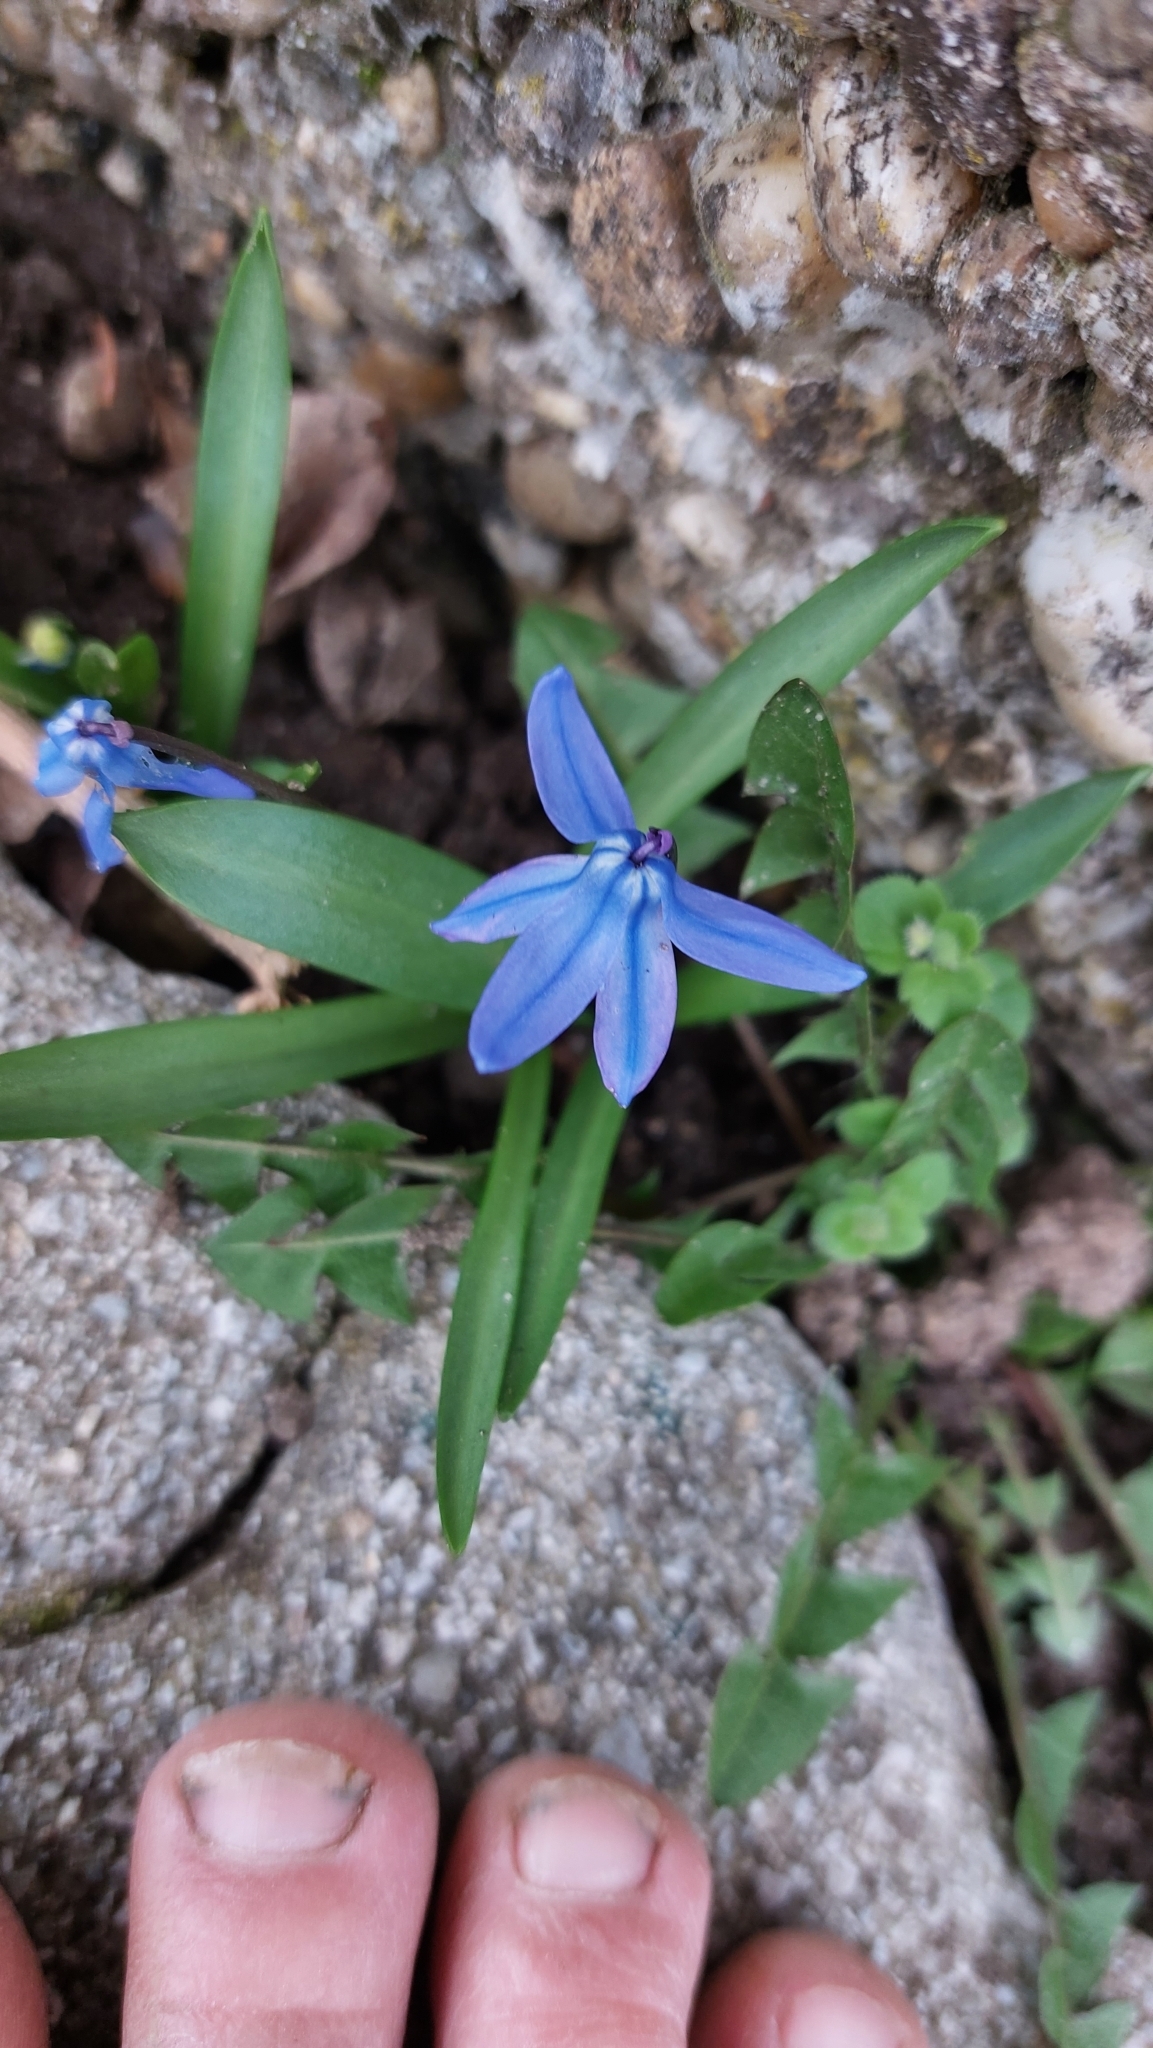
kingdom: Plantae
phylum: Tracheophyta
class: Liliopsida
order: Asparagales
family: Asparagaceae
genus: Scilla
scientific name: Scilla siberica
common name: Siberian squill
